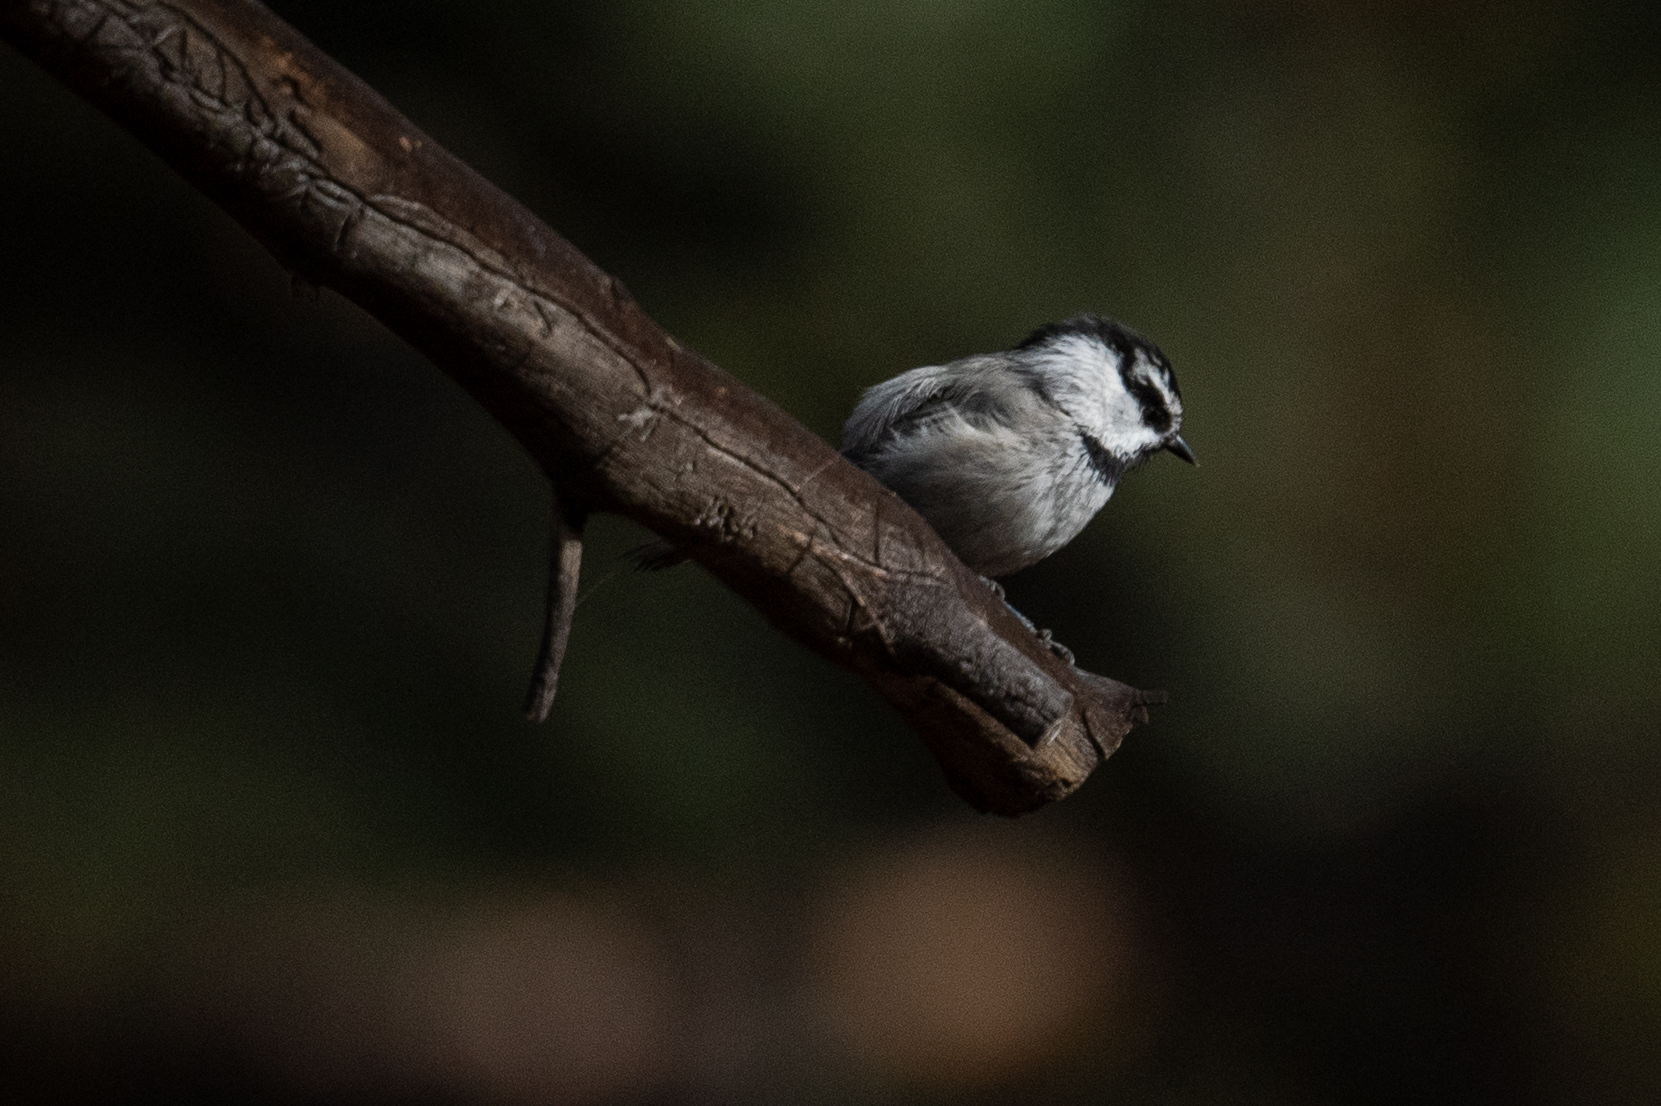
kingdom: Animalia
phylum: Chordata
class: Aves
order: Passeriformes
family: Paridae
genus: Poecile
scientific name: Poecile gambeli
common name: Mountain chickadee
